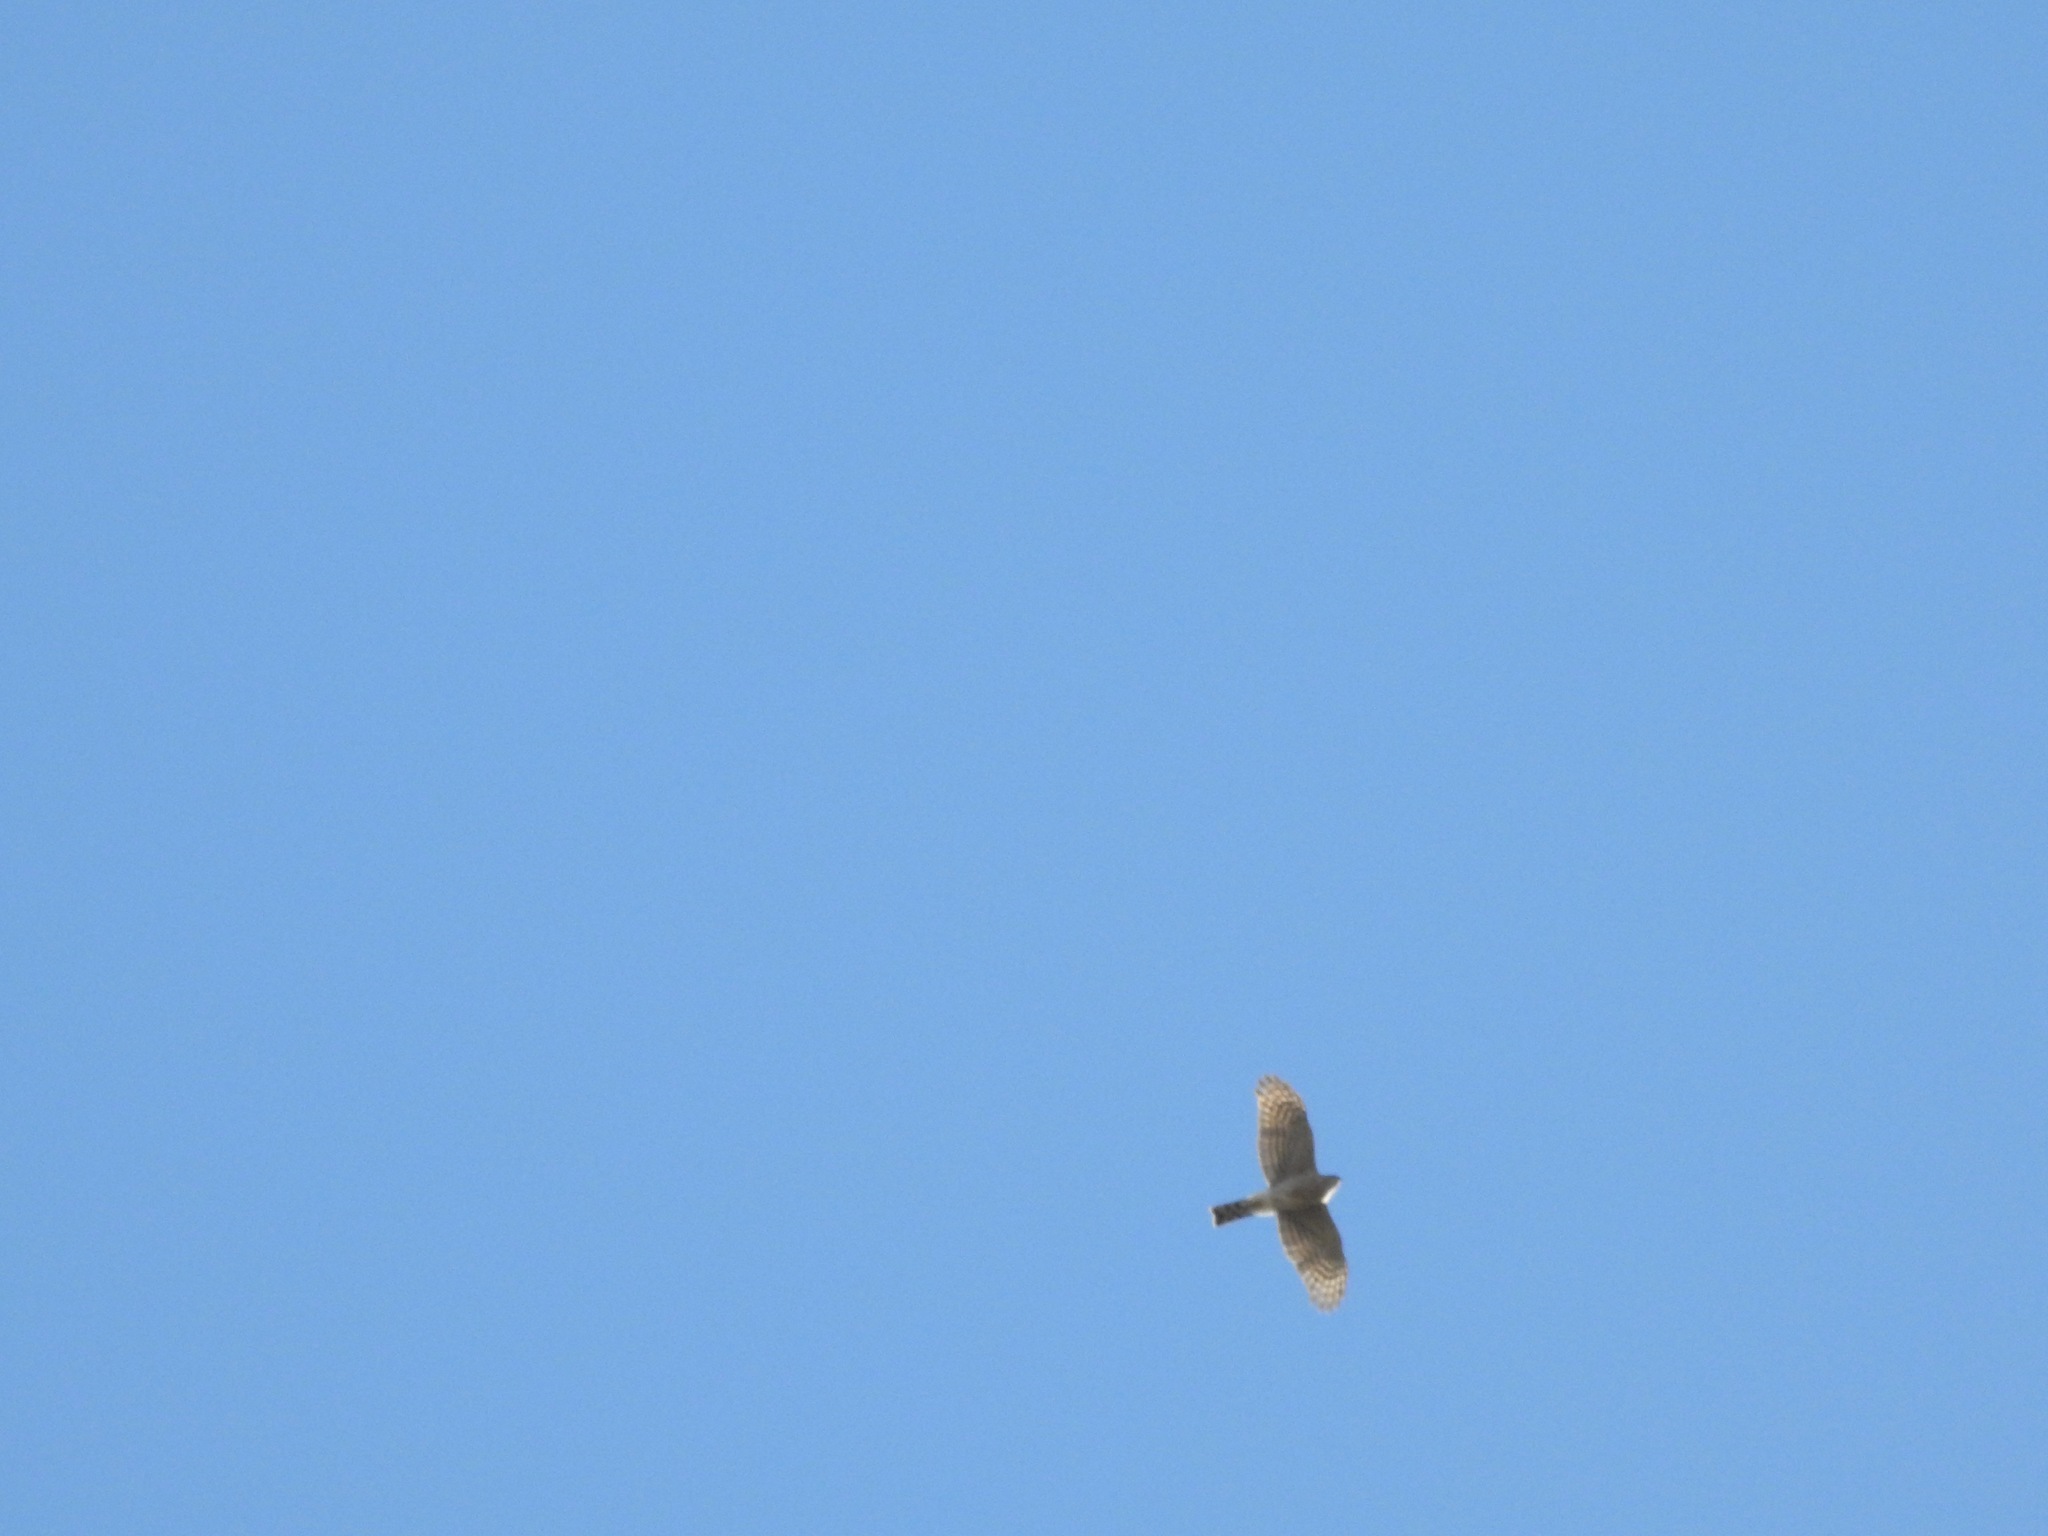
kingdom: Animalia
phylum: Chordata
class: Aves
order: Accipitriformes
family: Accipitridae
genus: Accipiter
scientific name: Accipiter striatus
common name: Sharp-shinned hawk
